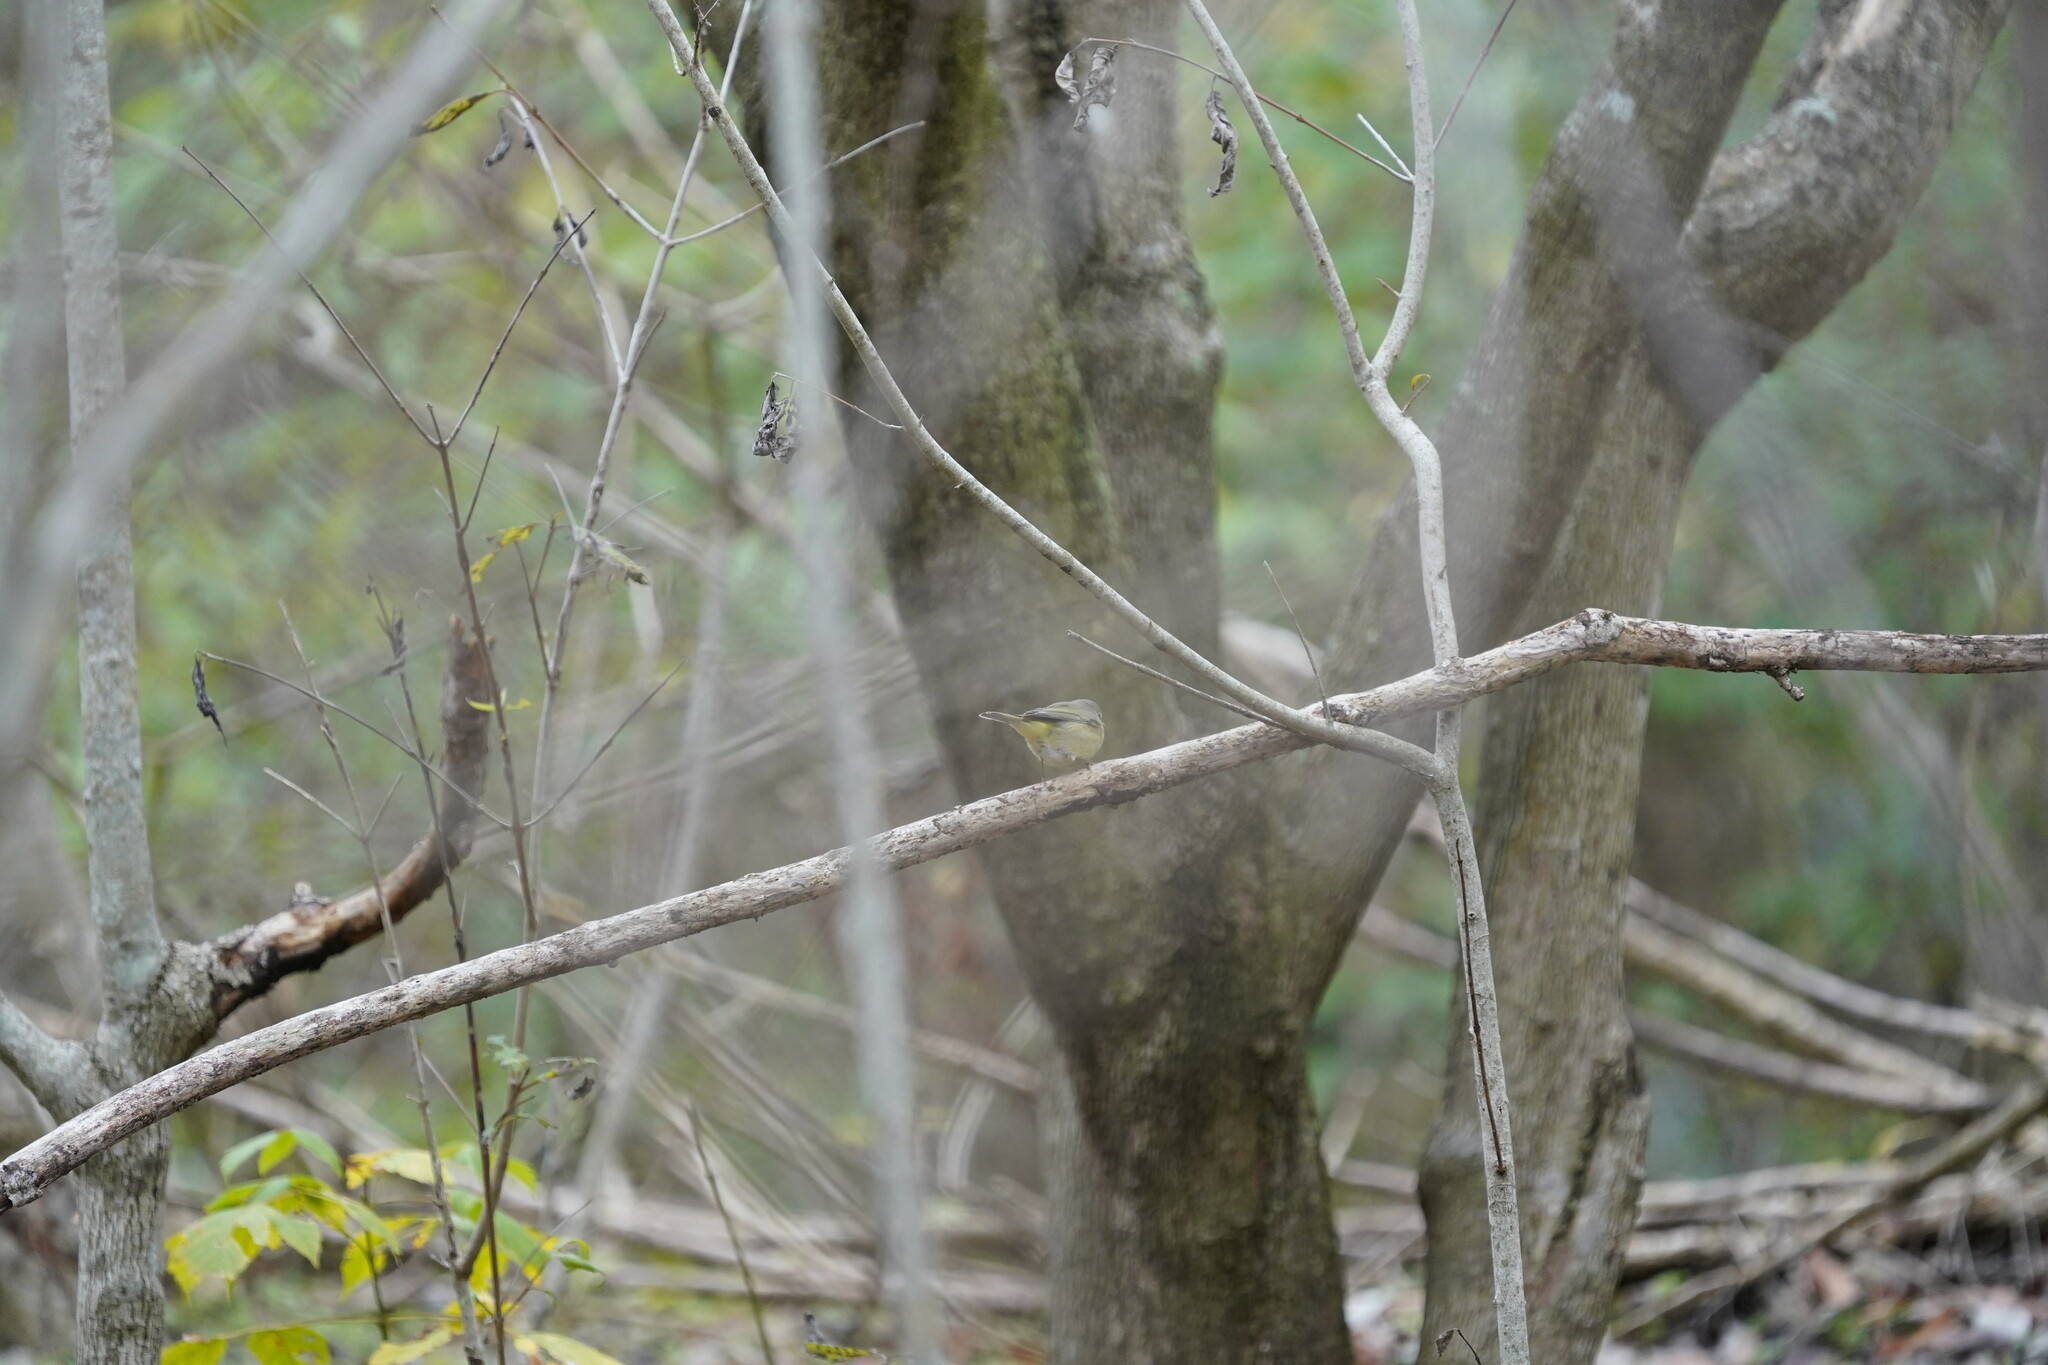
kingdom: Animalia
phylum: Chordata
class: Aves
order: Passeriformes
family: Parulidae
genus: Leiothlypis
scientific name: Leiothlypis celata
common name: Orange-crowned warbler
